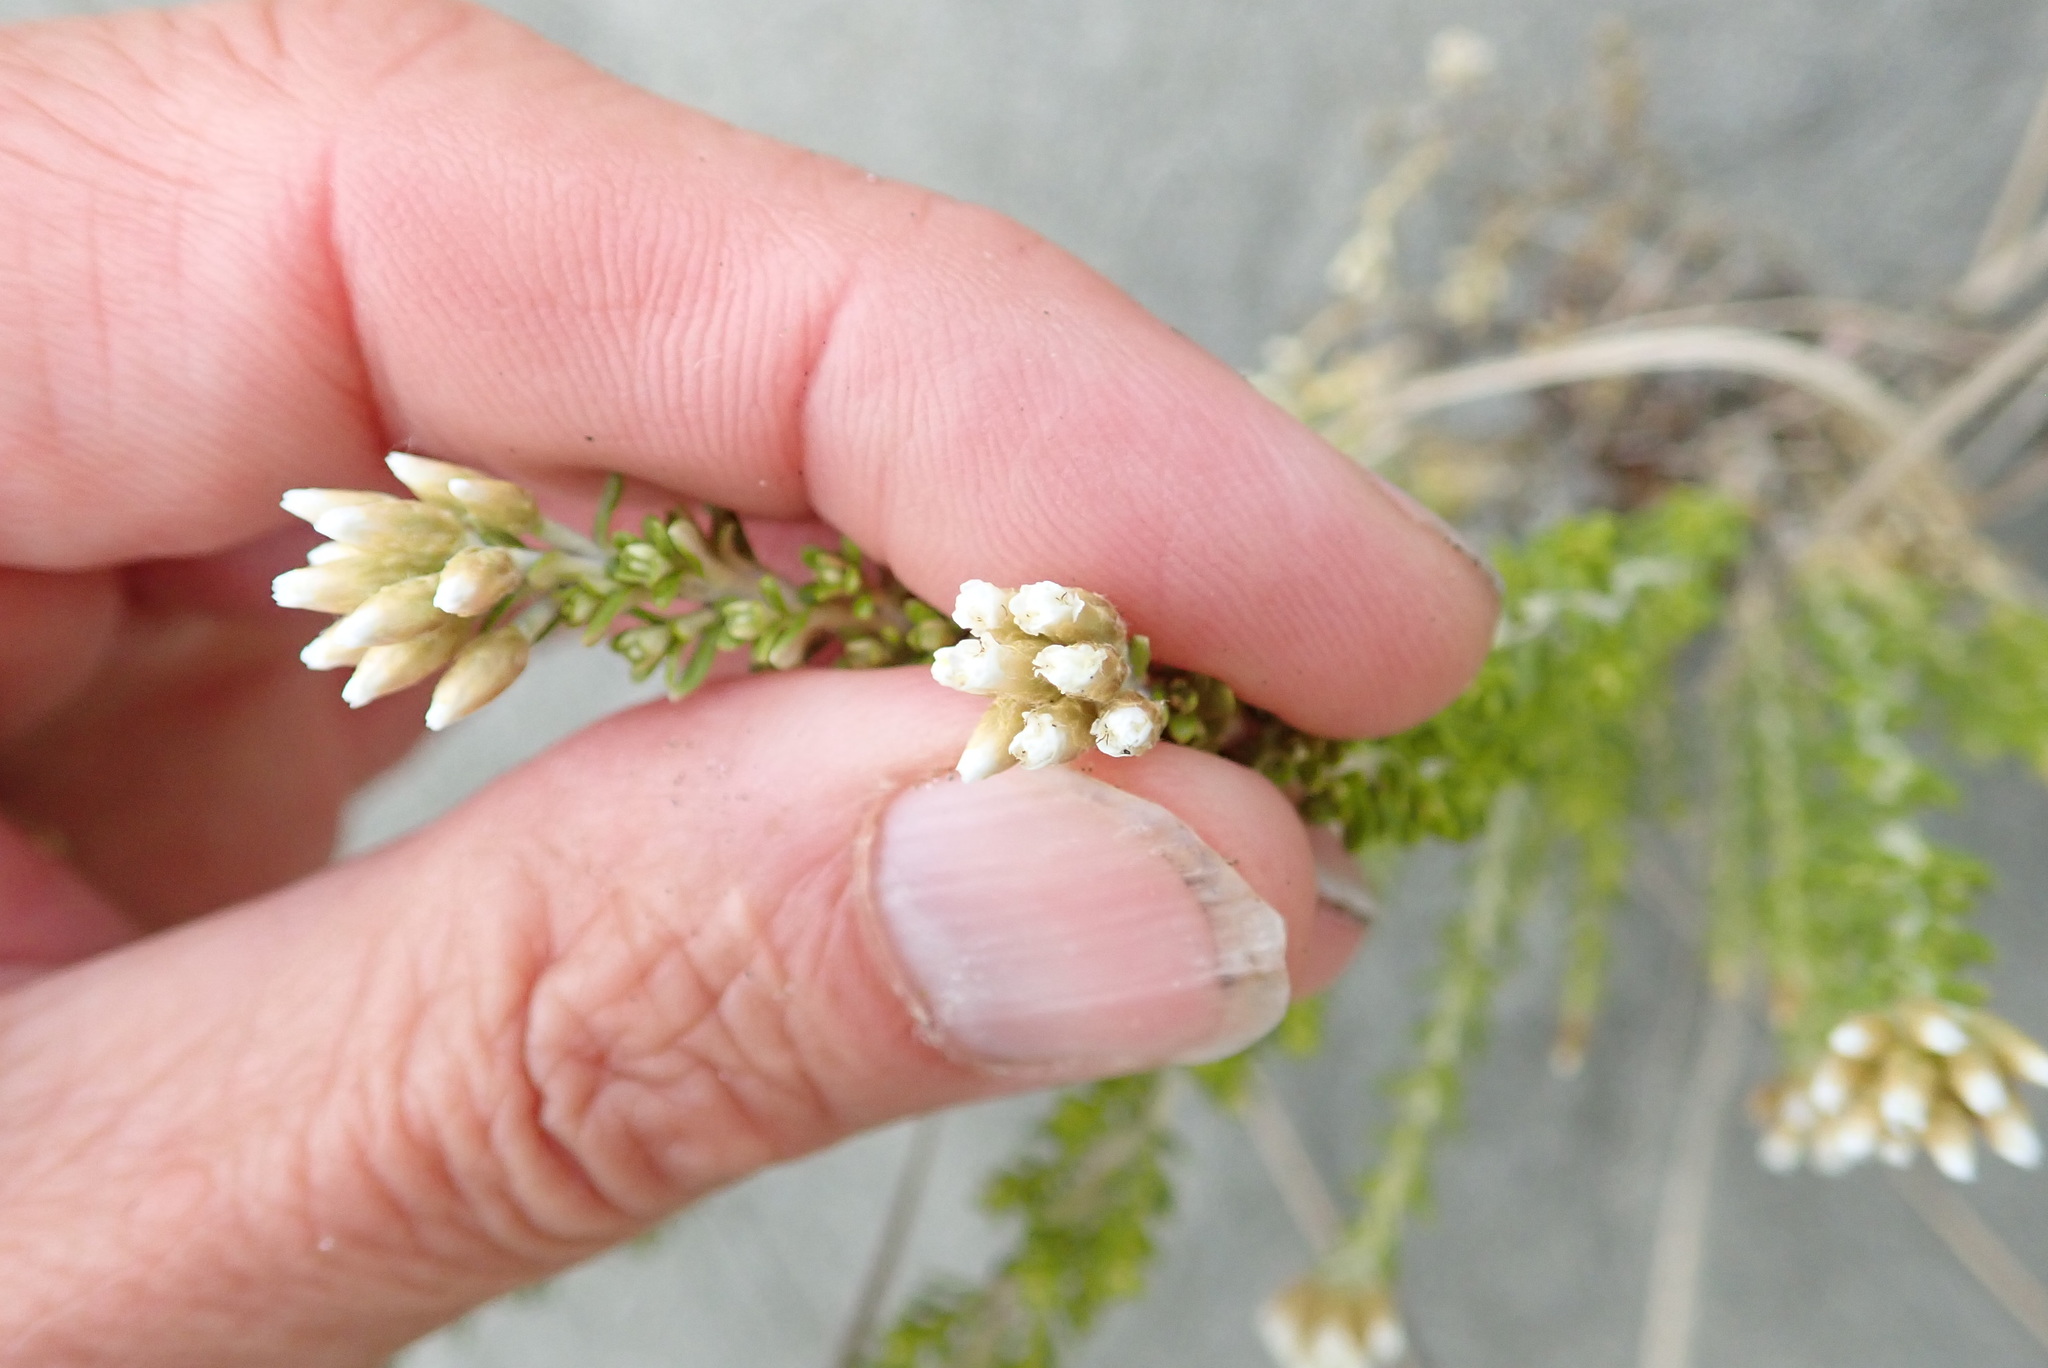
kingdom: Plantae
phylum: Tracheophyta
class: Magnoliopsida
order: Asterales
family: Asteraceae
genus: Ozothamnus
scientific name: Ozothamnus leptophyllus
